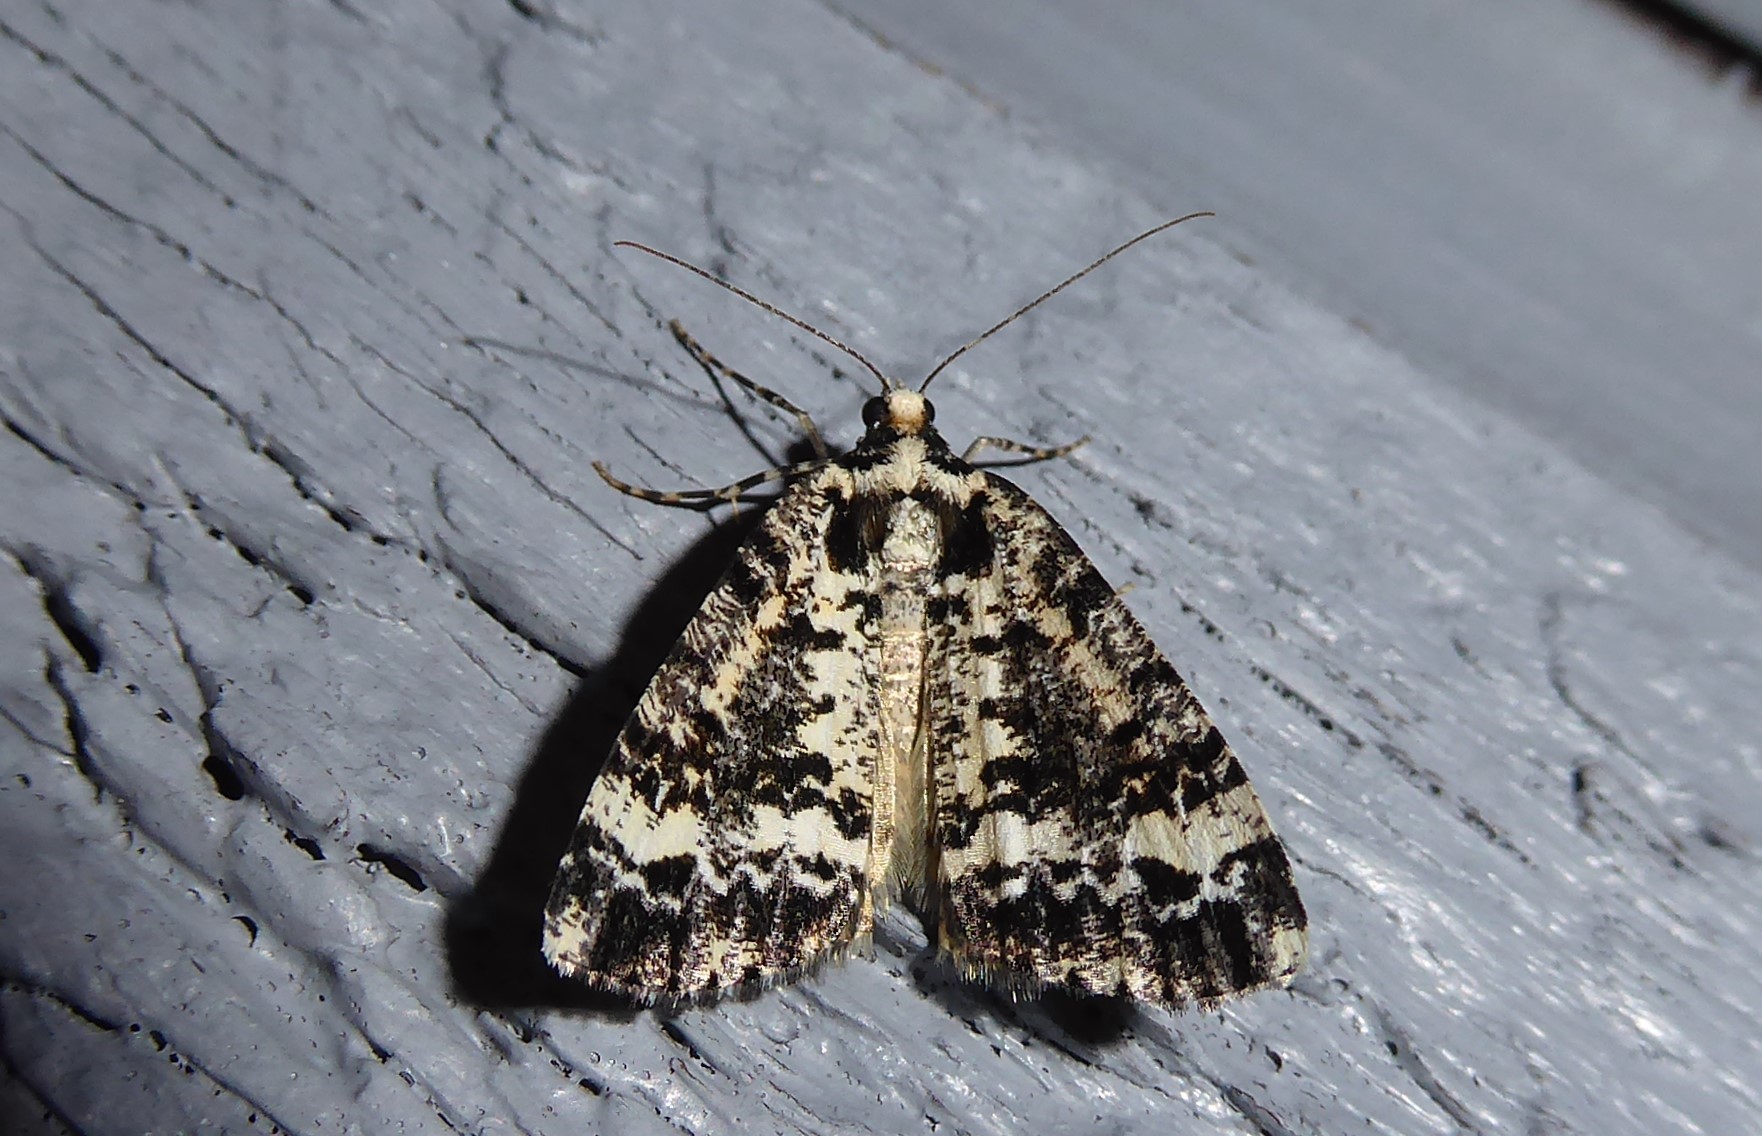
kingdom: Animalia
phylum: Arthropoda
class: Insecta
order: Lepidoptera
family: Geometridae
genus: Pseudocoremia
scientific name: Pseudocoremia leucelaea
